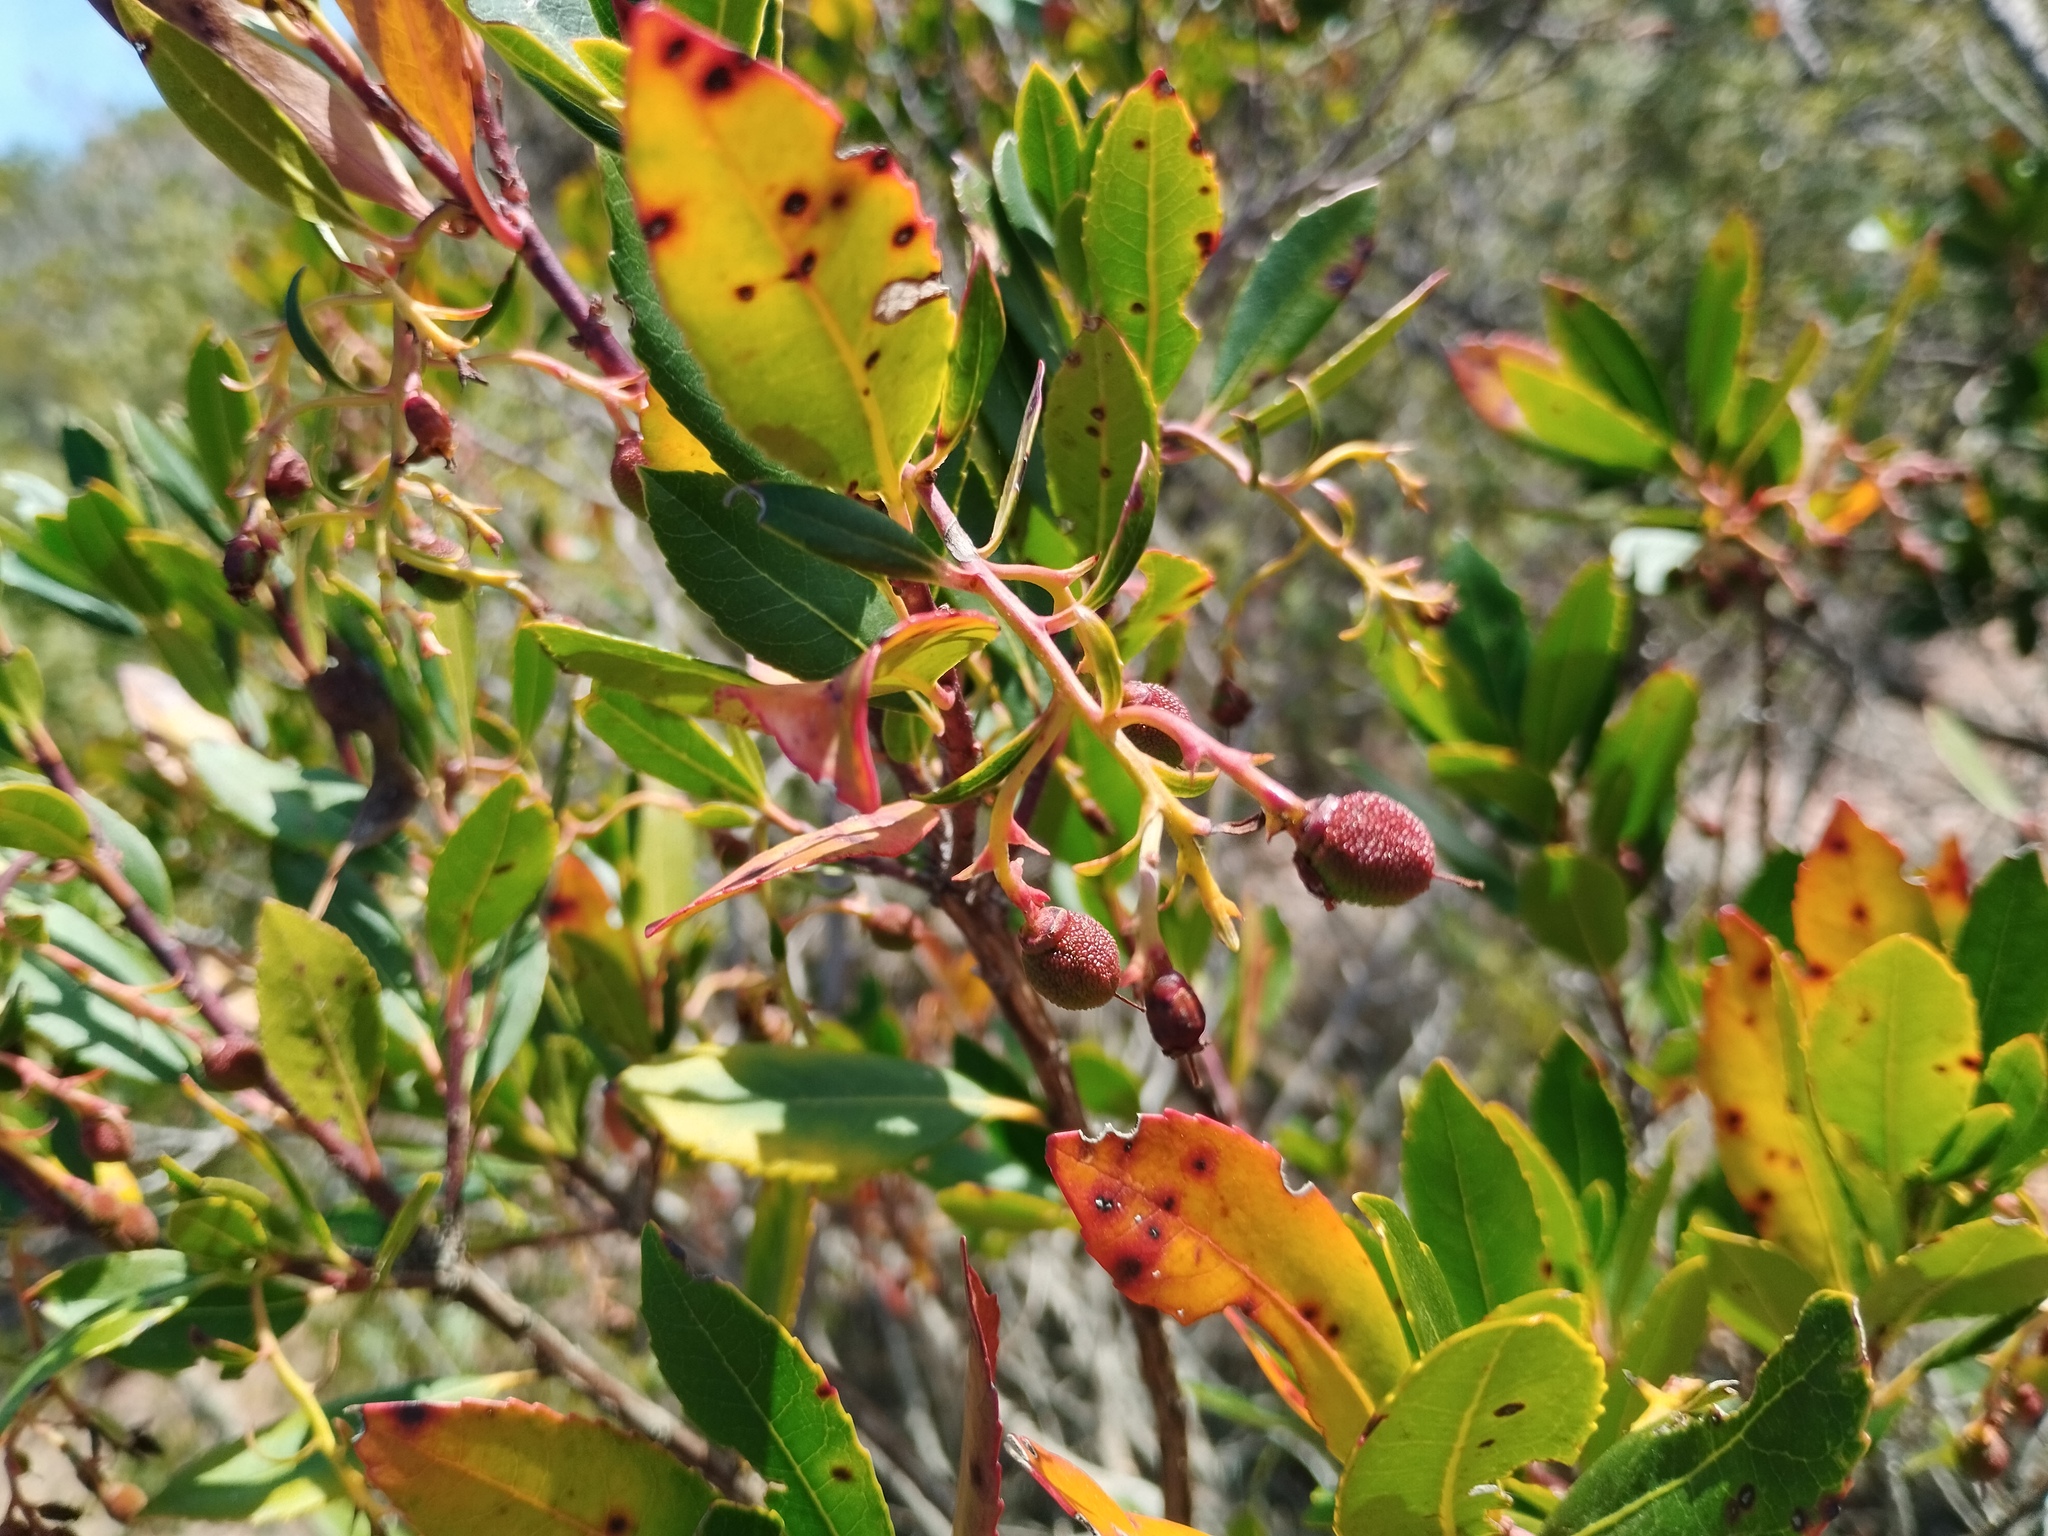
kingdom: Plantae
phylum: Tracheophyta
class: Magnoliopsida
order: Ericales
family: Ericaceae
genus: Arbutus
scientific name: Arbutus unedo
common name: Strawberry-tree
